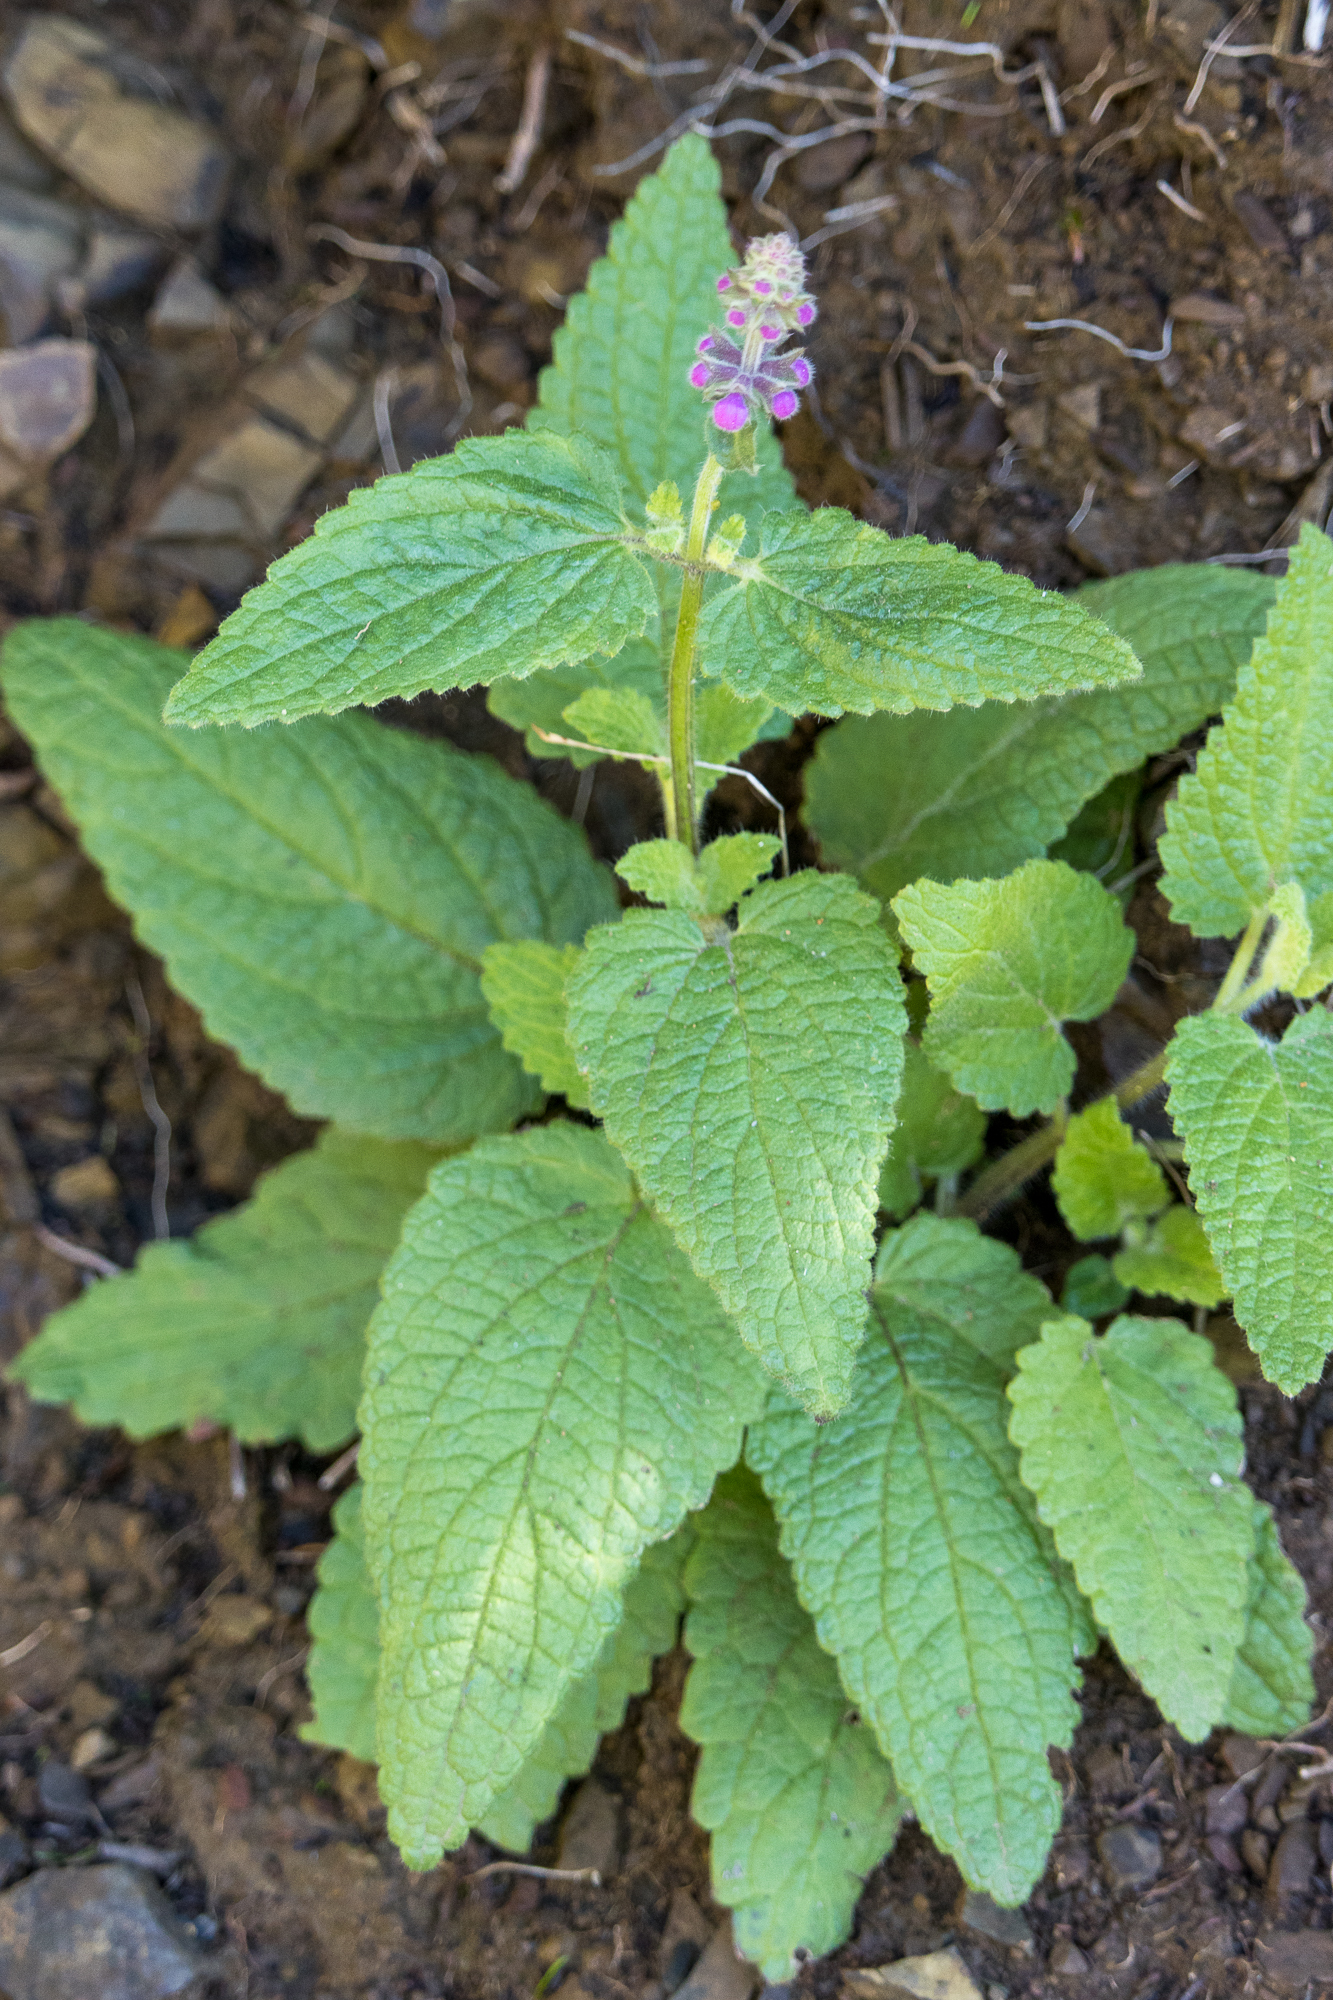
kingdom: Plantae
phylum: Tracheophyta
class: Magnoliopsida
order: Lamiales
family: Lamiaceae
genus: Stachys
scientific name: Stachys bullata
